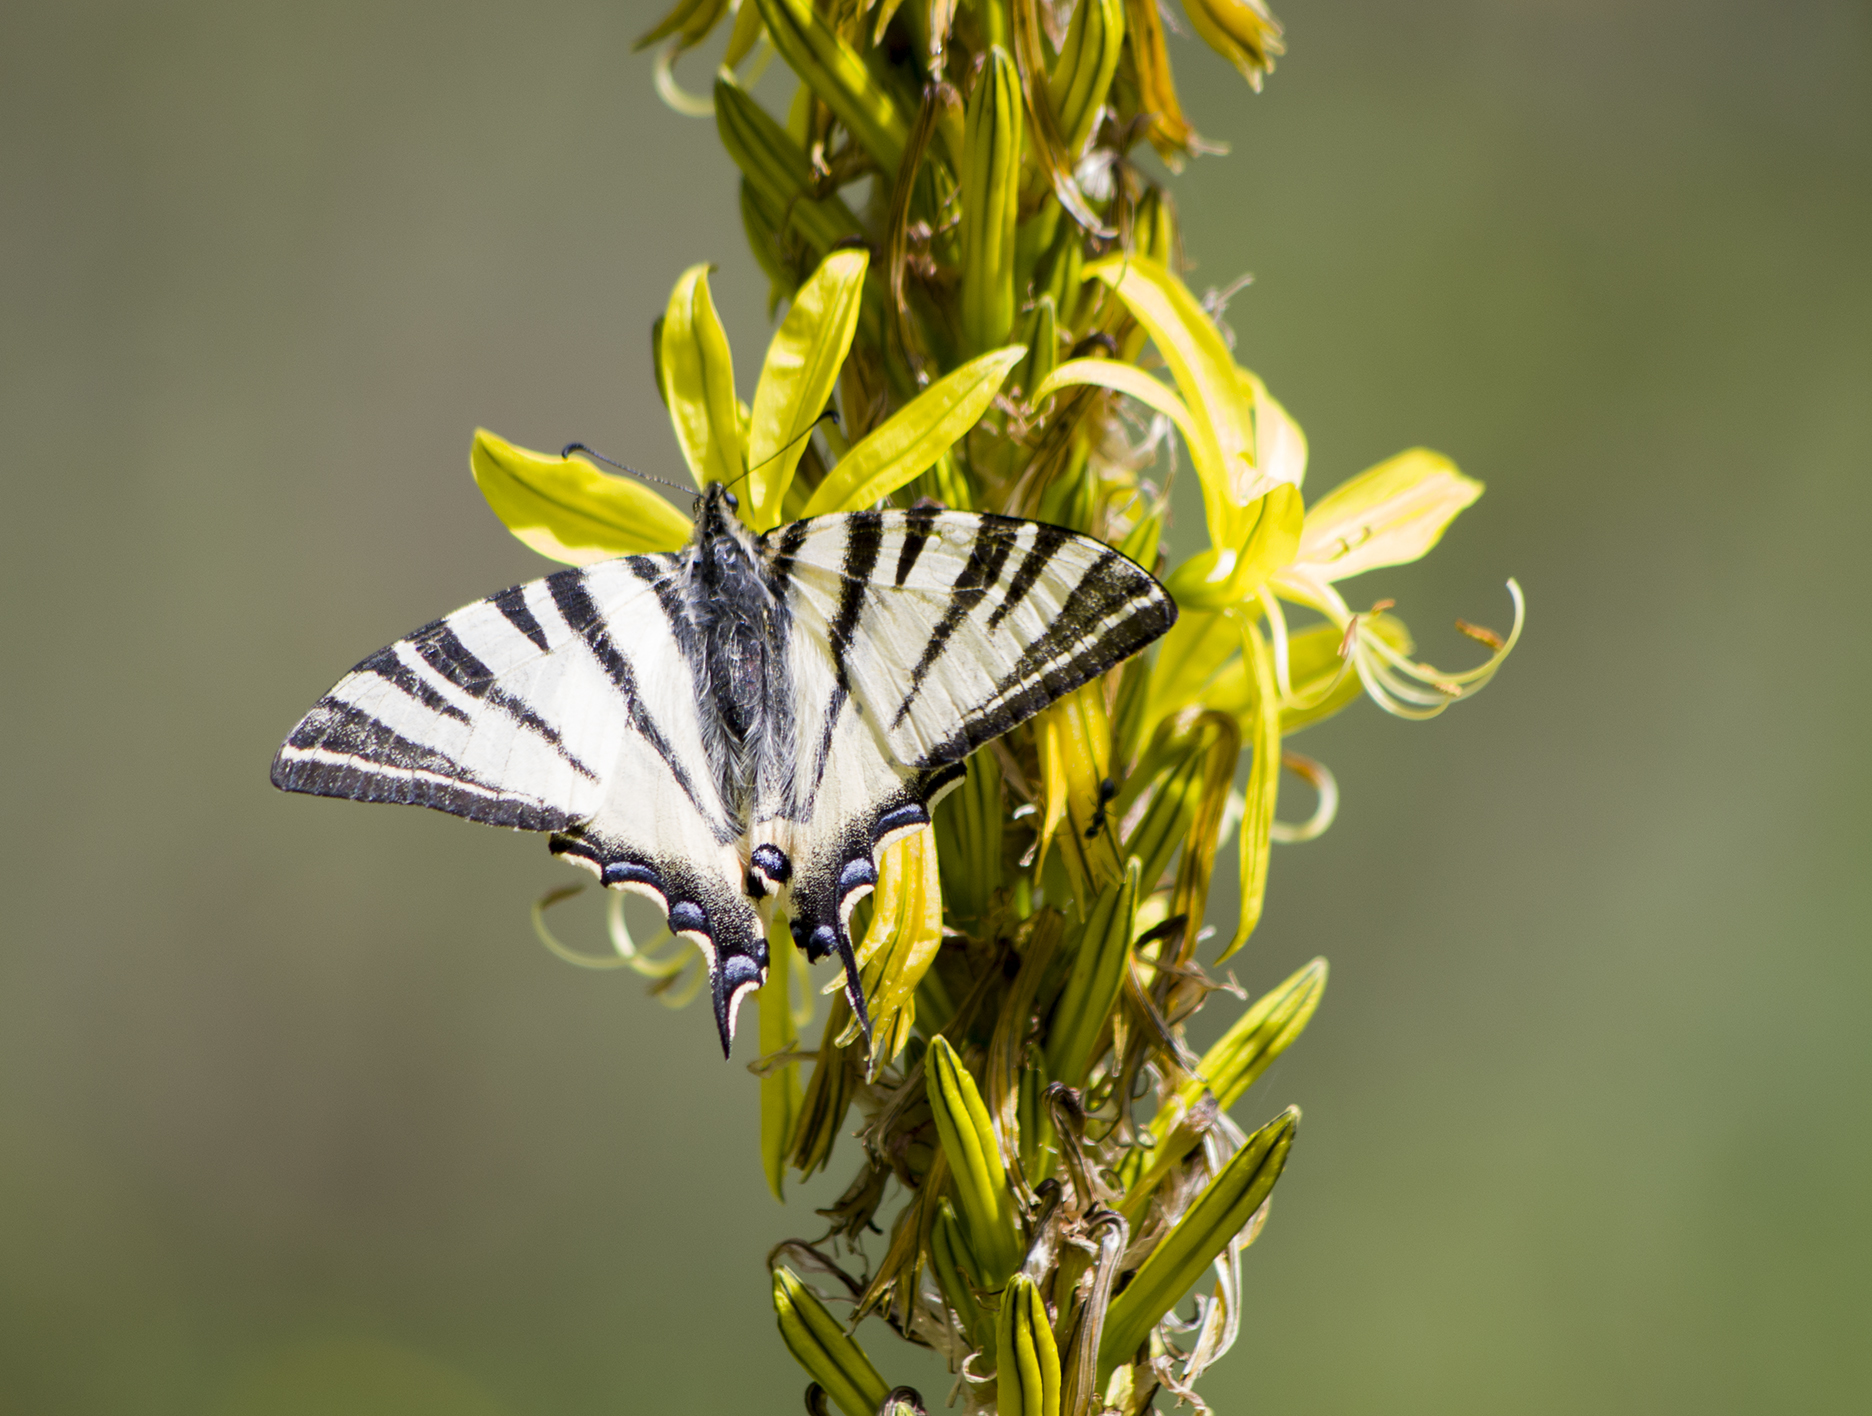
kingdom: Animalia
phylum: Arthropoda
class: Insecta
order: Lepidoptera
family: Papilionidae
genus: Iphiclides
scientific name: Iphiclides podalirius
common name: Scarce swallowtail
